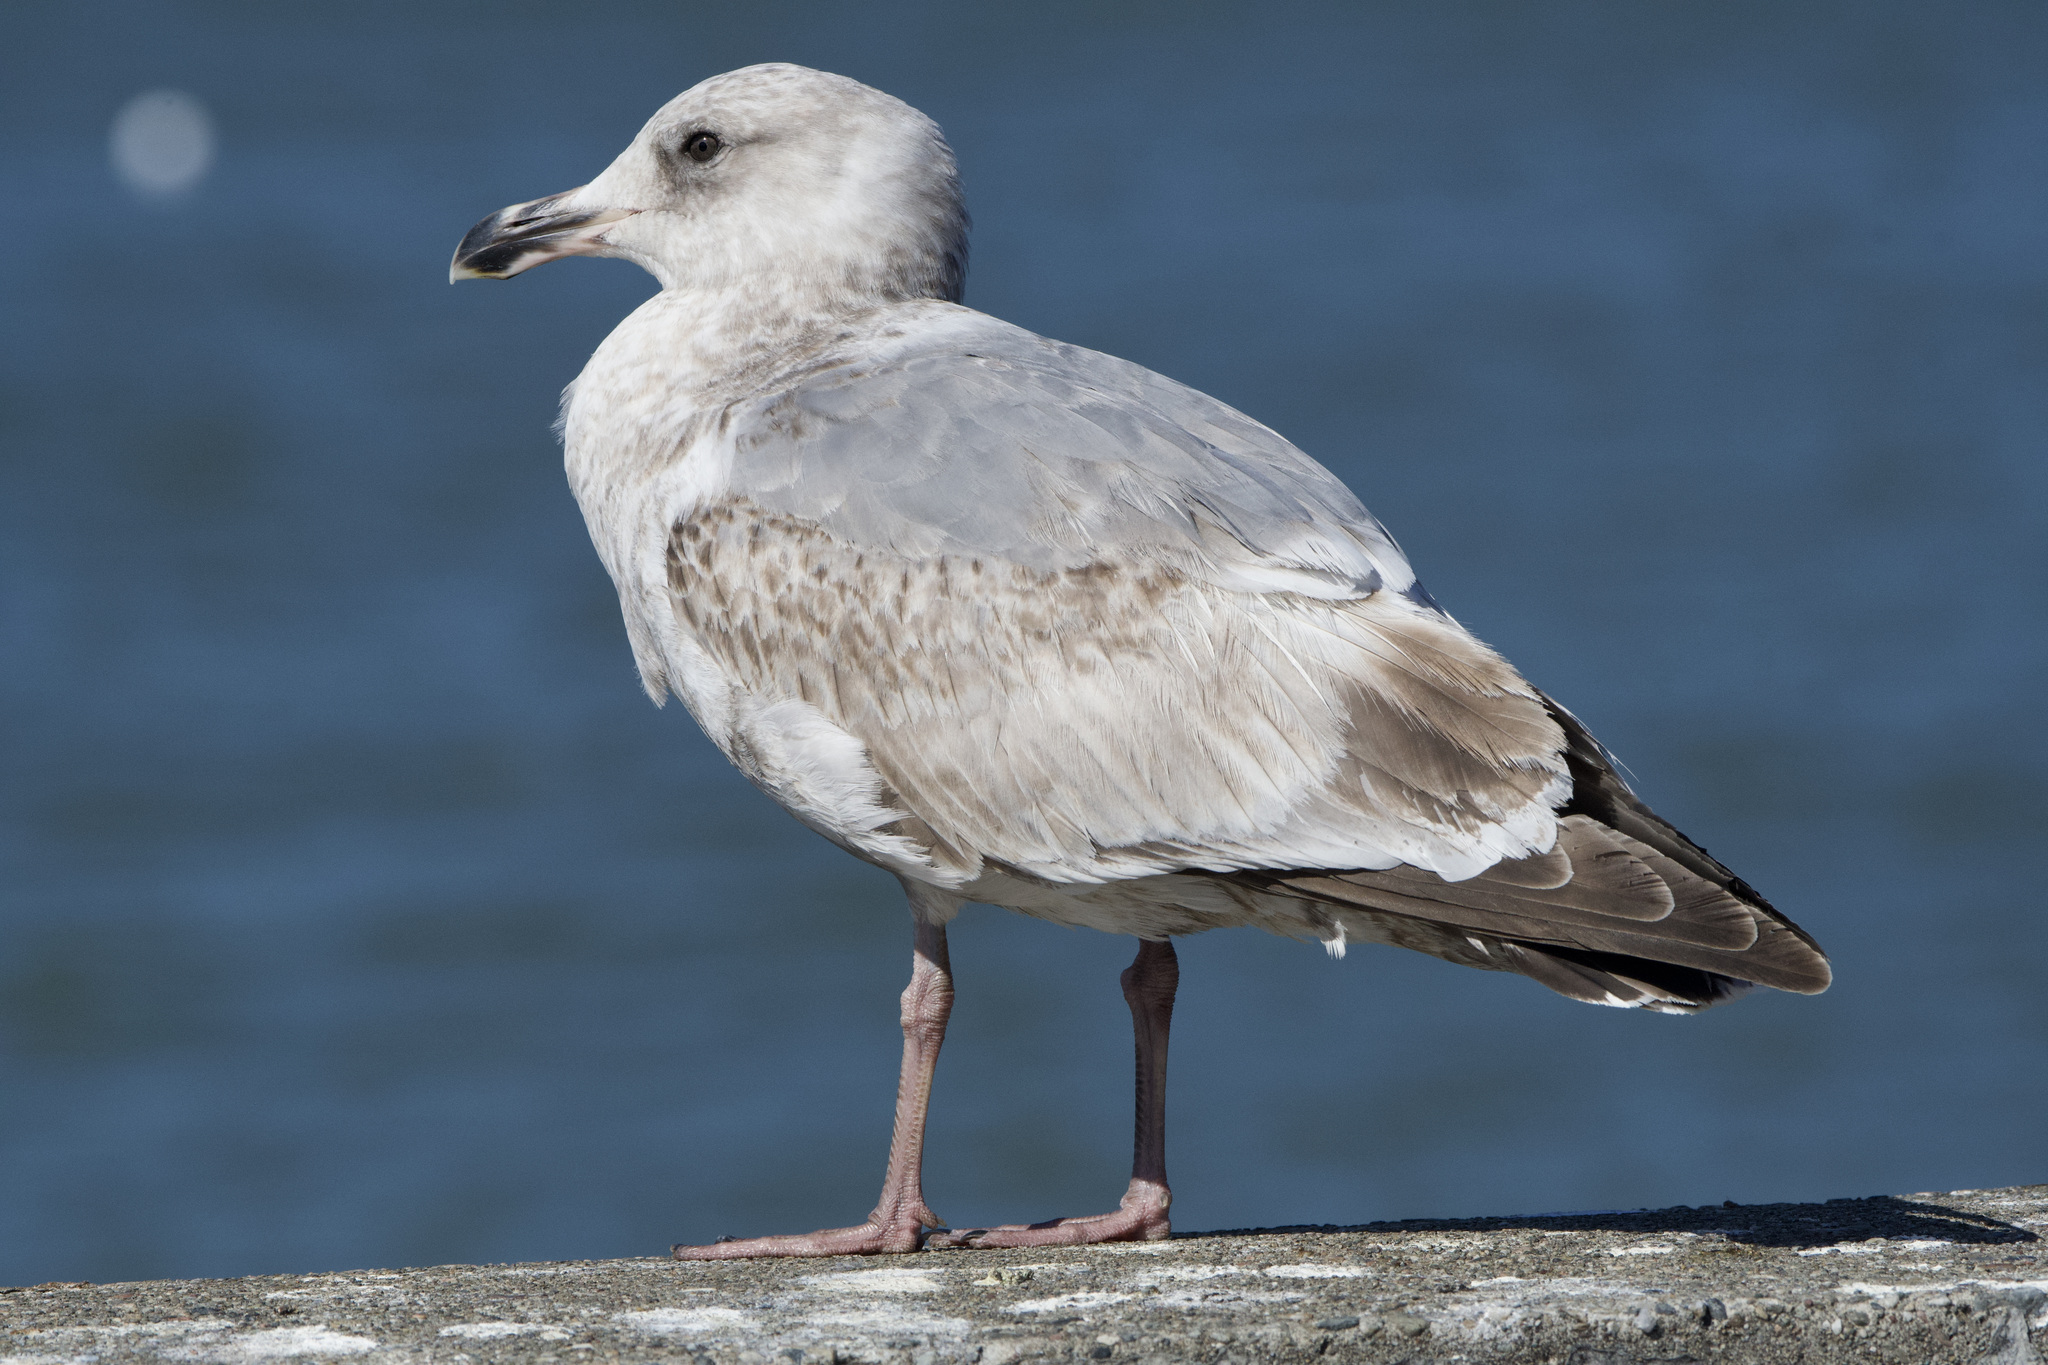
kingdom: Animalia
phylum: Chordata
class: Aves
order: Charadriiformes
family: Laridae
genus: Larus
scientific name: Larus
